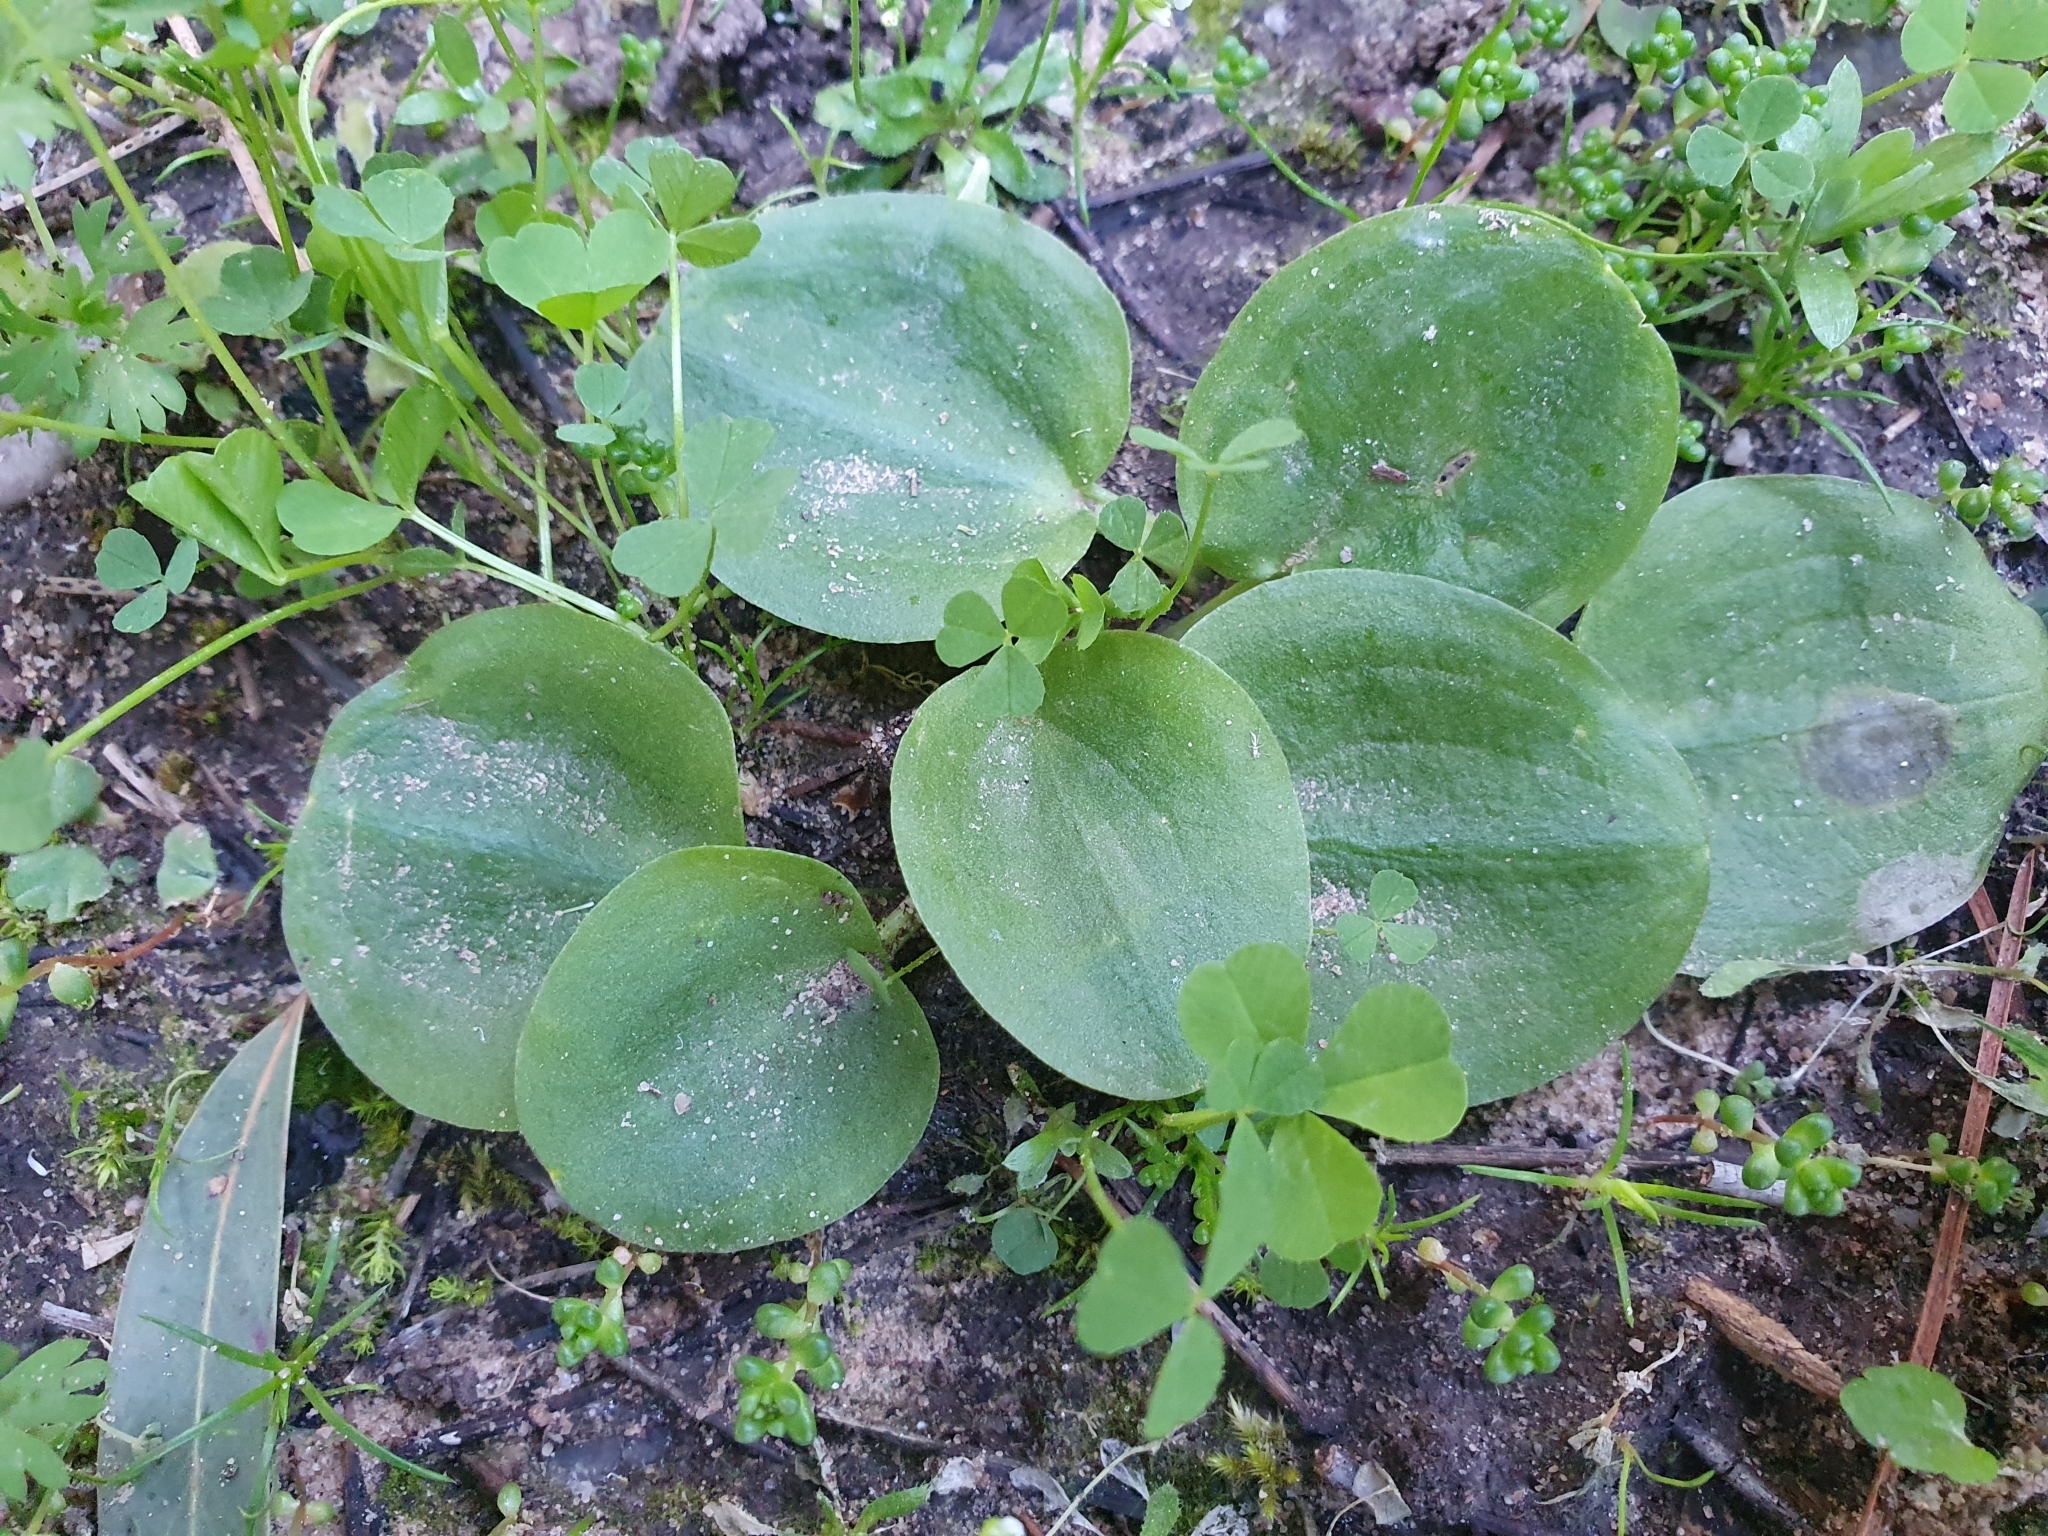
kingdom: Plantae
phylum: Tracheophyta
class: Liliopsida
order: Alismatales
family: Araceae
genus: Ambrosina
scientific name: Ambrosina bassii
